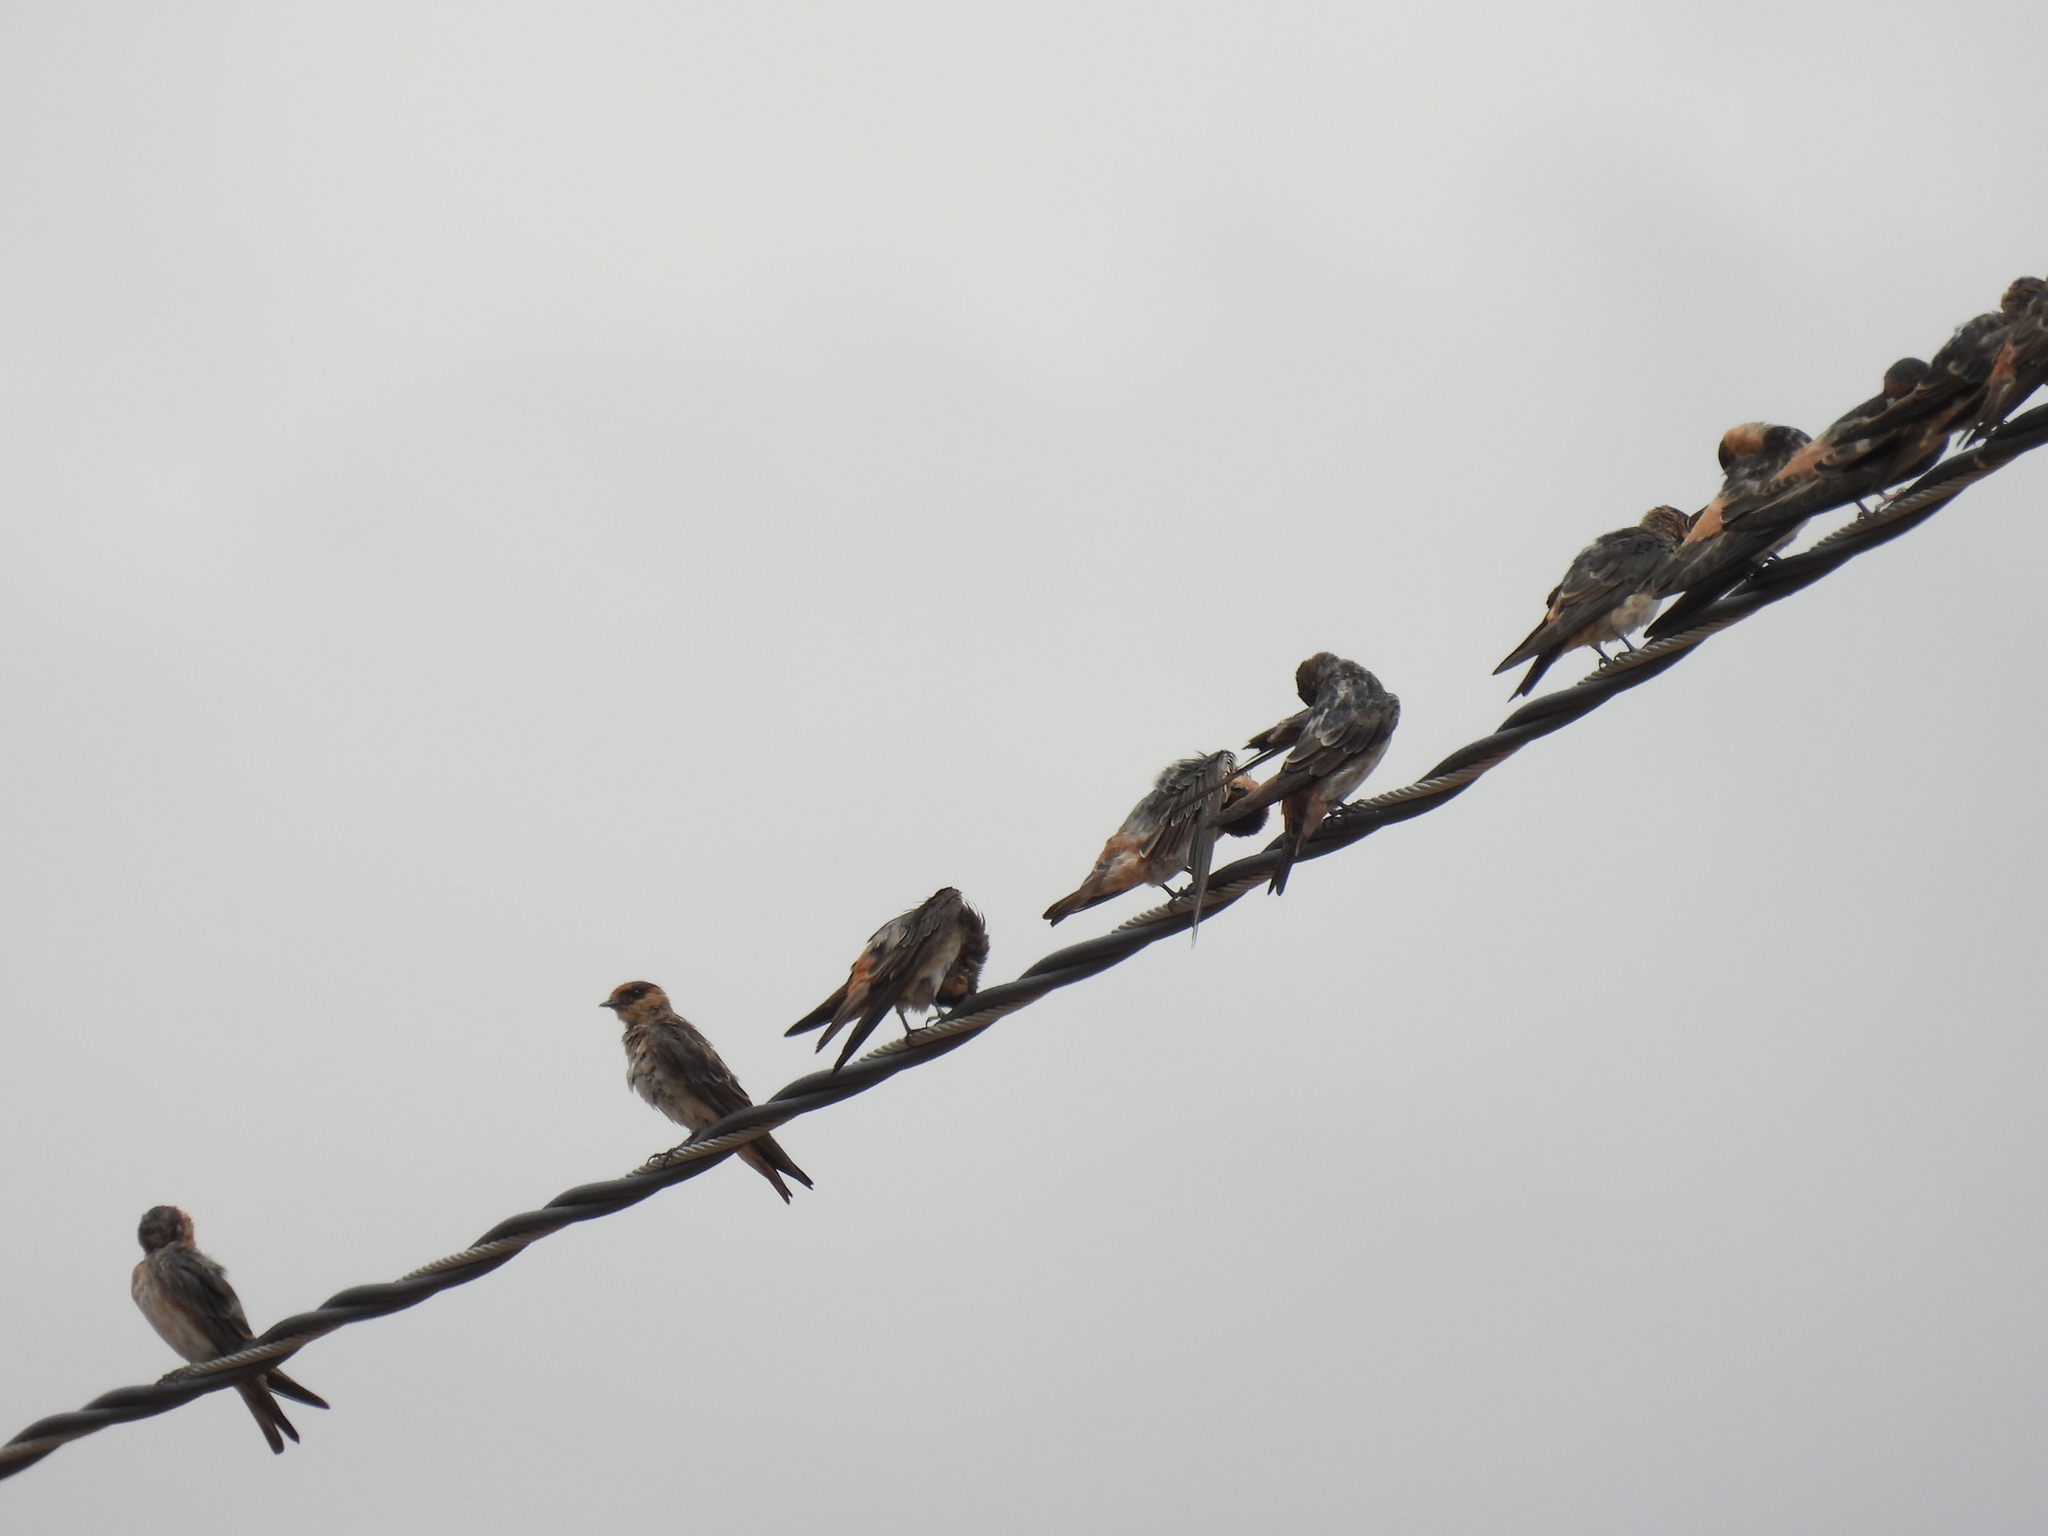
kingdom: Animalia
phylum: Chordata
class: Aves
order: Passeriformes
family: Hirundinidae
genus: Petrochelidon
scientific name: Petrochelidon fulva
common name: Cave swallow
